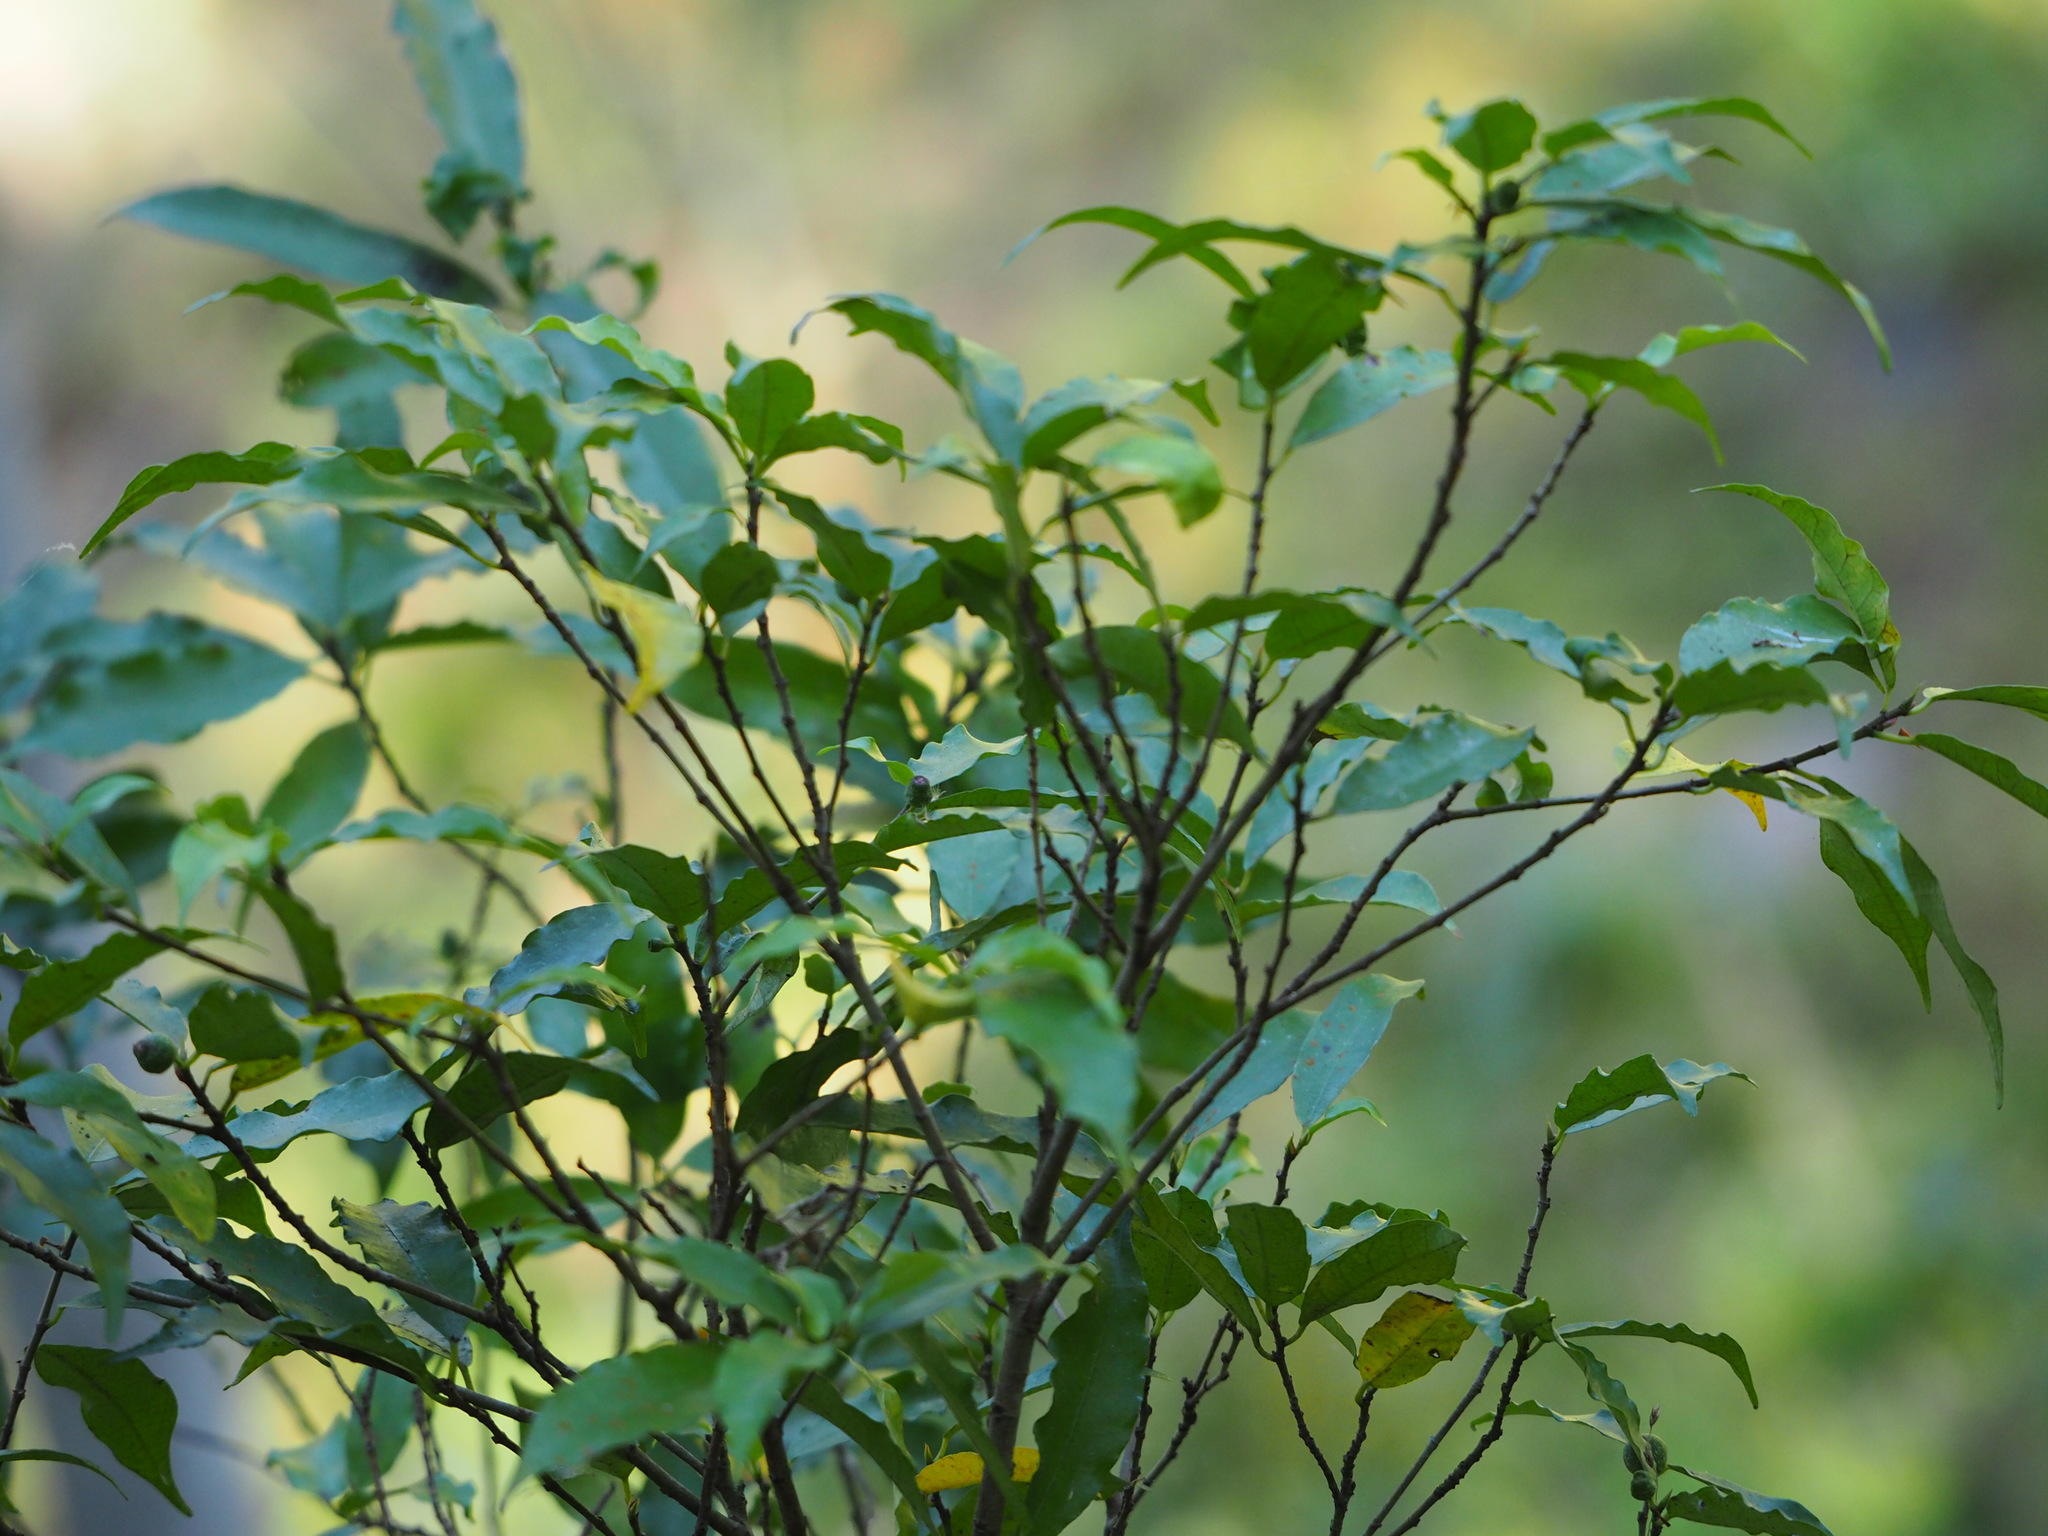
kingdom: Plantae
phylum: Tracheophyta
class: Magnoliopsida
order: Rosales
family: Moraceae
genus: Ficus
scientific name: Ficus formosana
